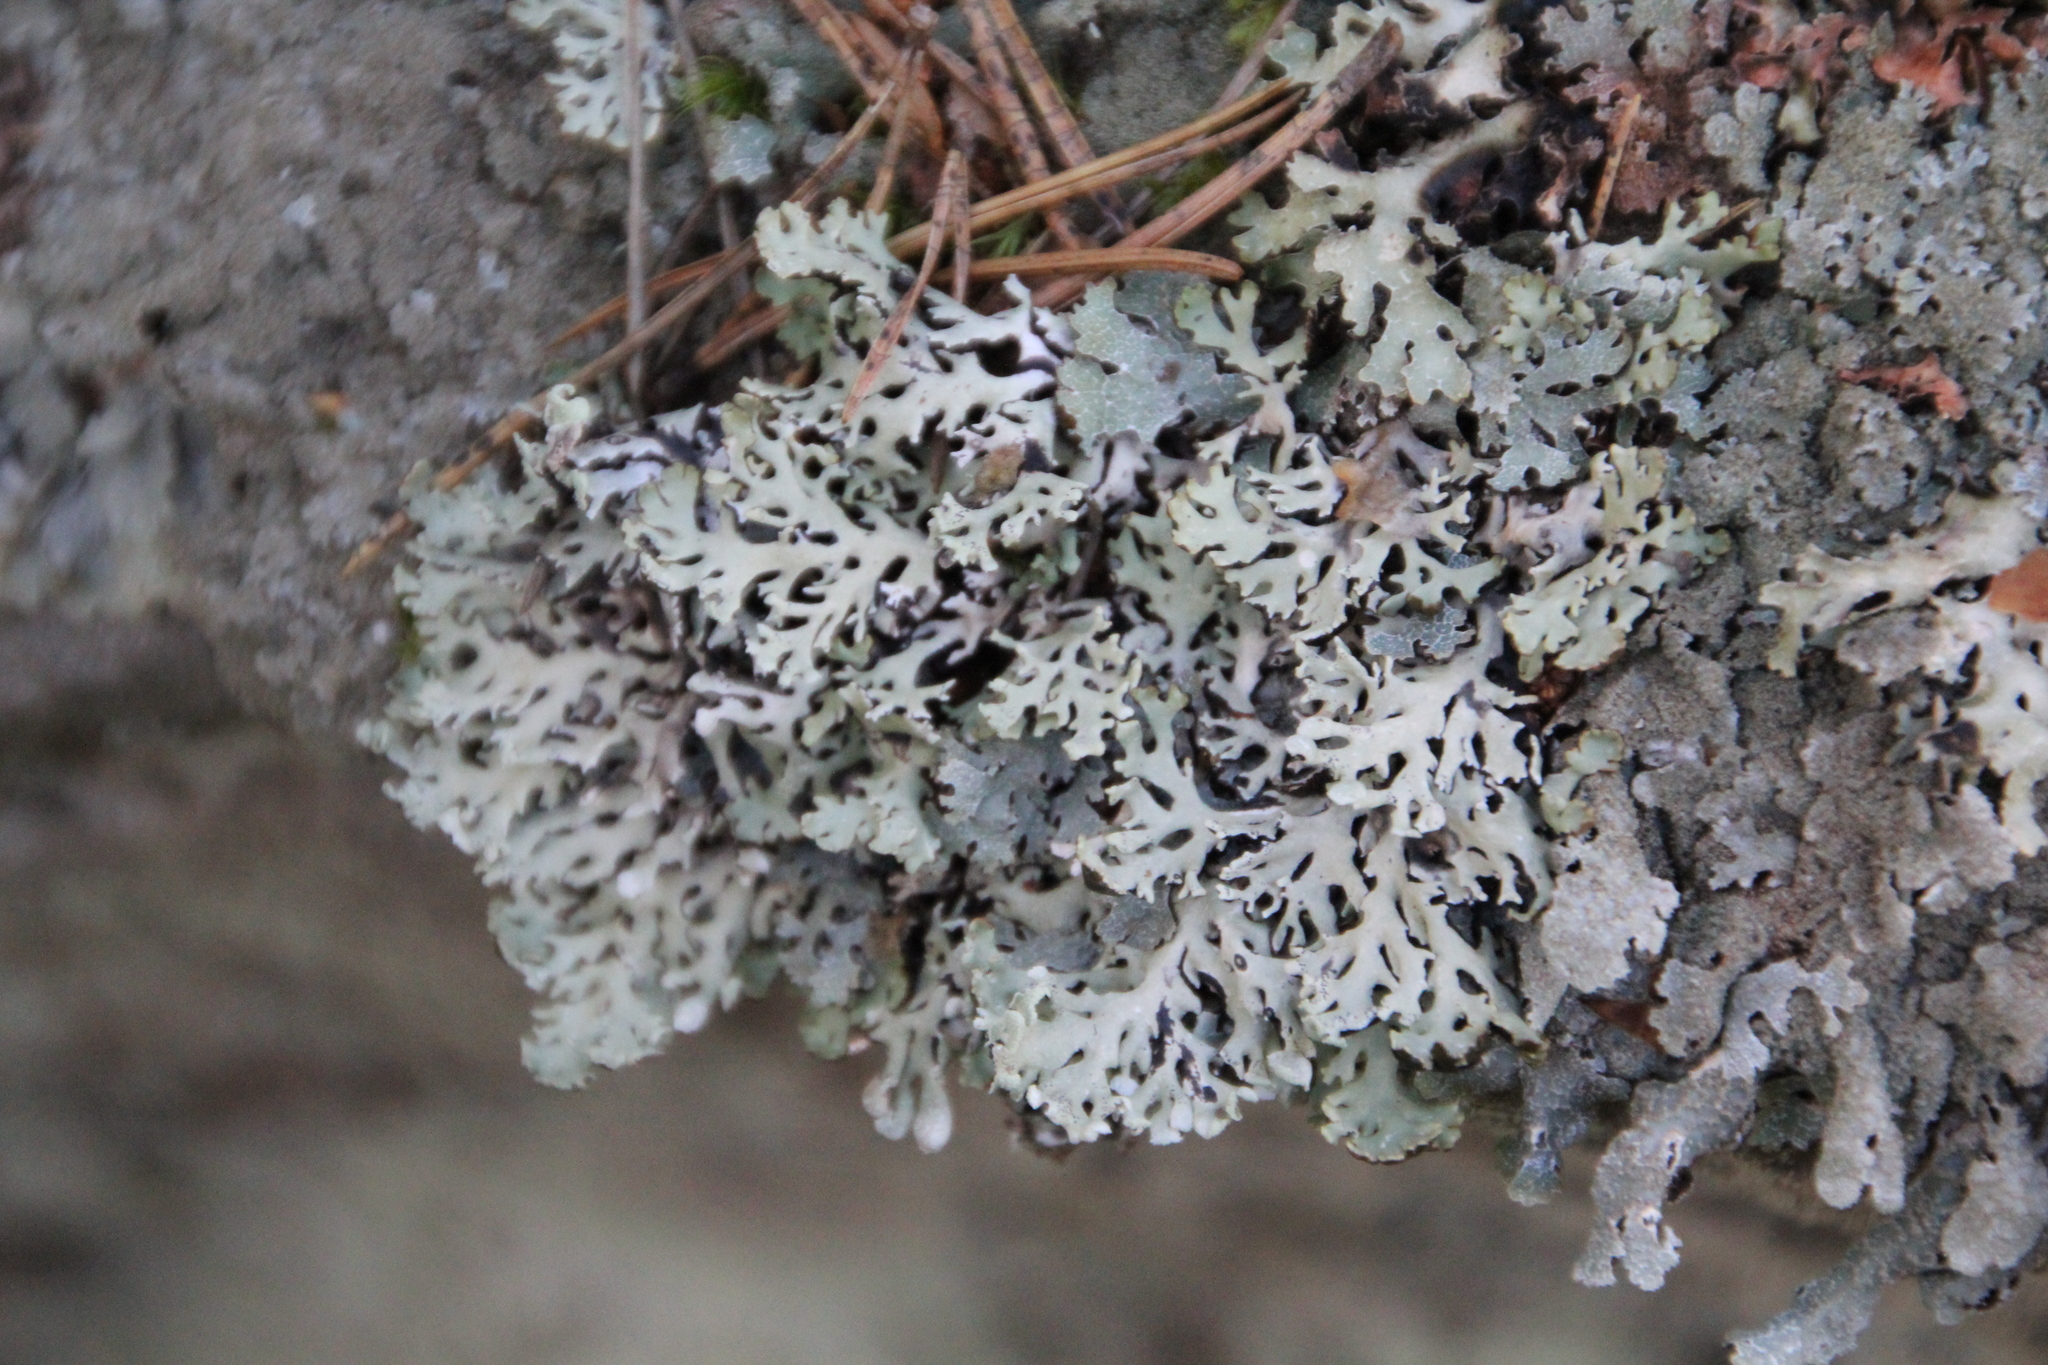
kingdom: Fungi
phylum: Ascomycota
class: Lecanoromycetes
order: Lecanorales
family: Parmeliaceae
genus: Hypogymnia
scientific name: Hypogymnia physodes
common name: Dark crottle
